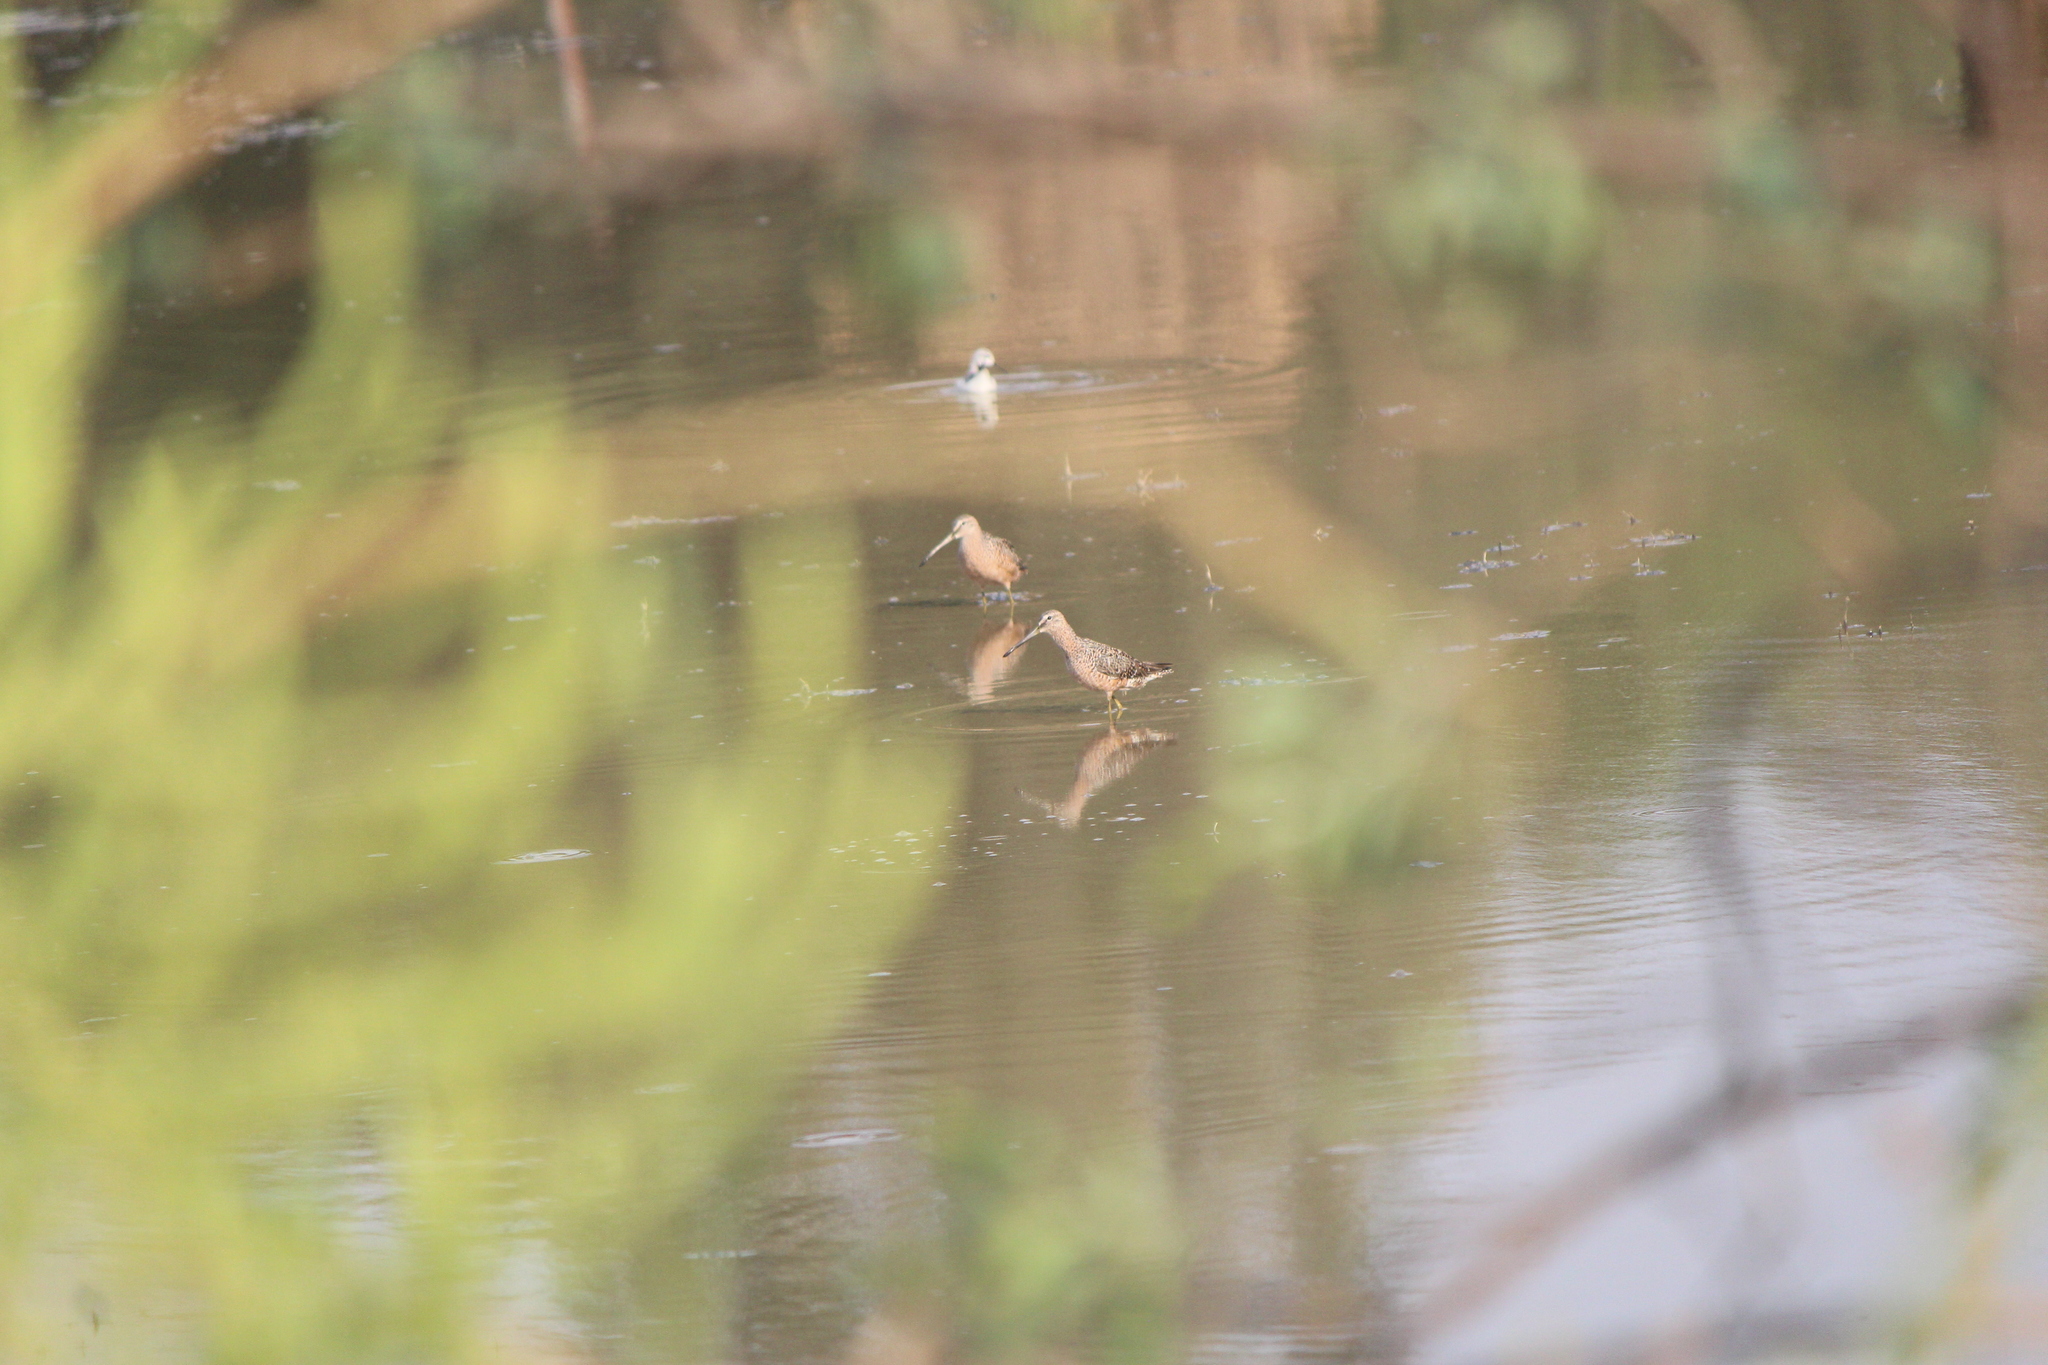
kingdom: Animalia
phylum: Chordata
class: Aves
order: Charadriiformes
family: Scolopacidae
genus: Limnodromus
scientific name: Limnodromus scolopaceus
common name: Long-billed dowitcher
